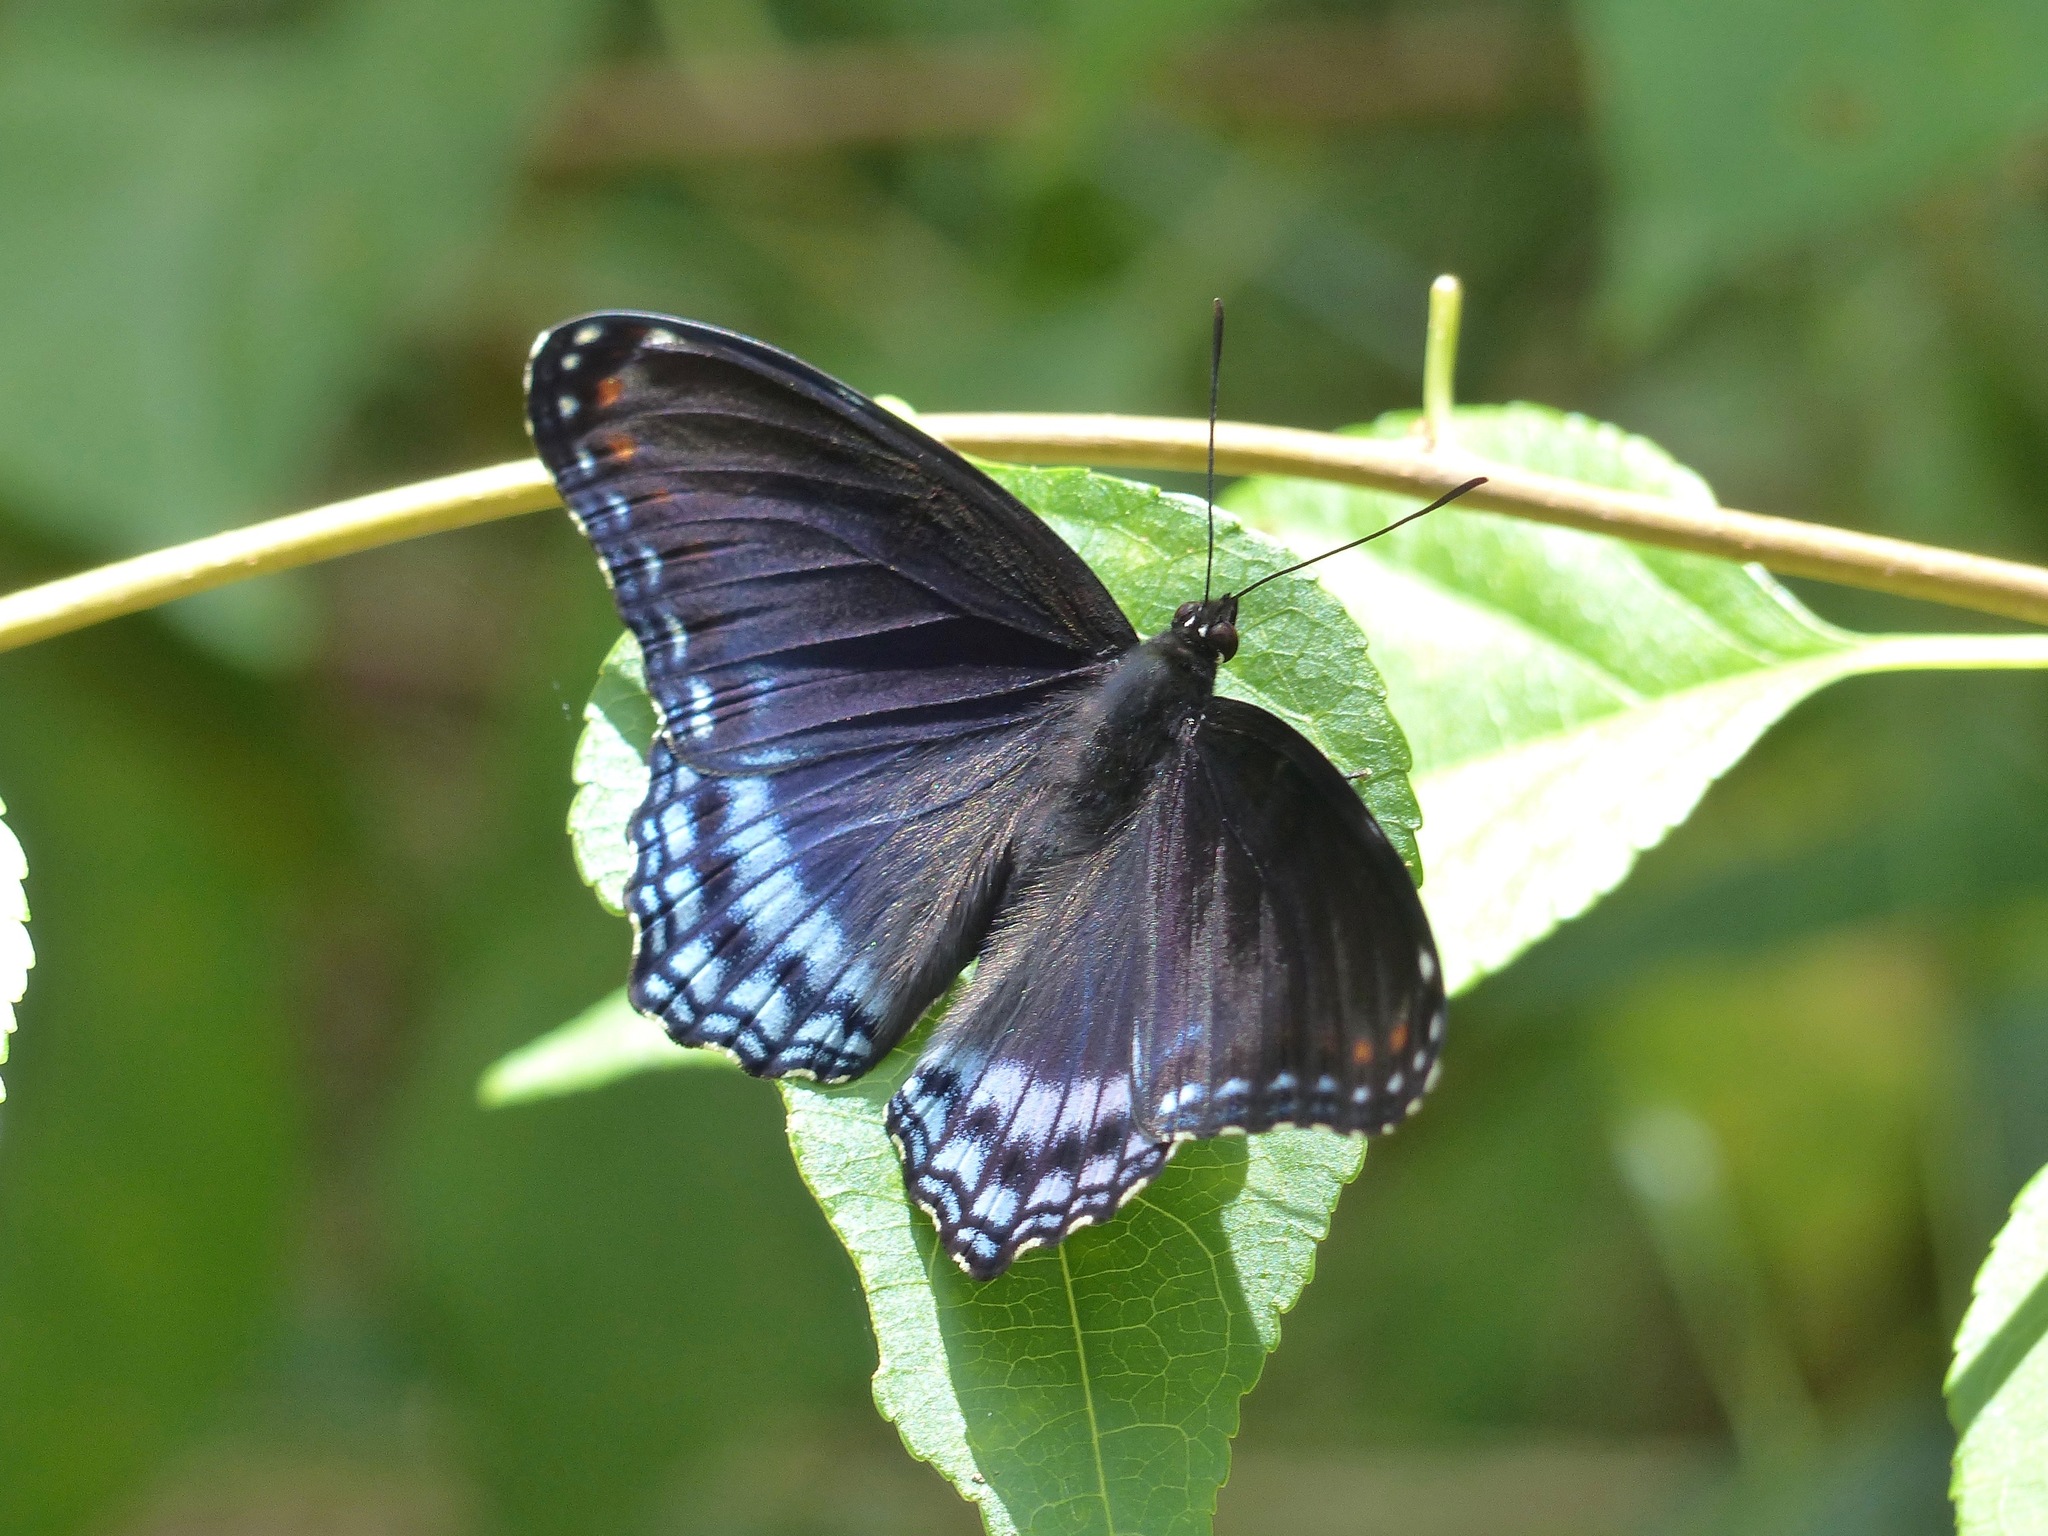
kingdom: Animalia
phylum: Arthropoda
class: Insecta
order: Lepidoptera
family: Nymphalidae
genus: Limenitis
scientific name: Limenitis arthemis
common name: Red-spotted admiral
